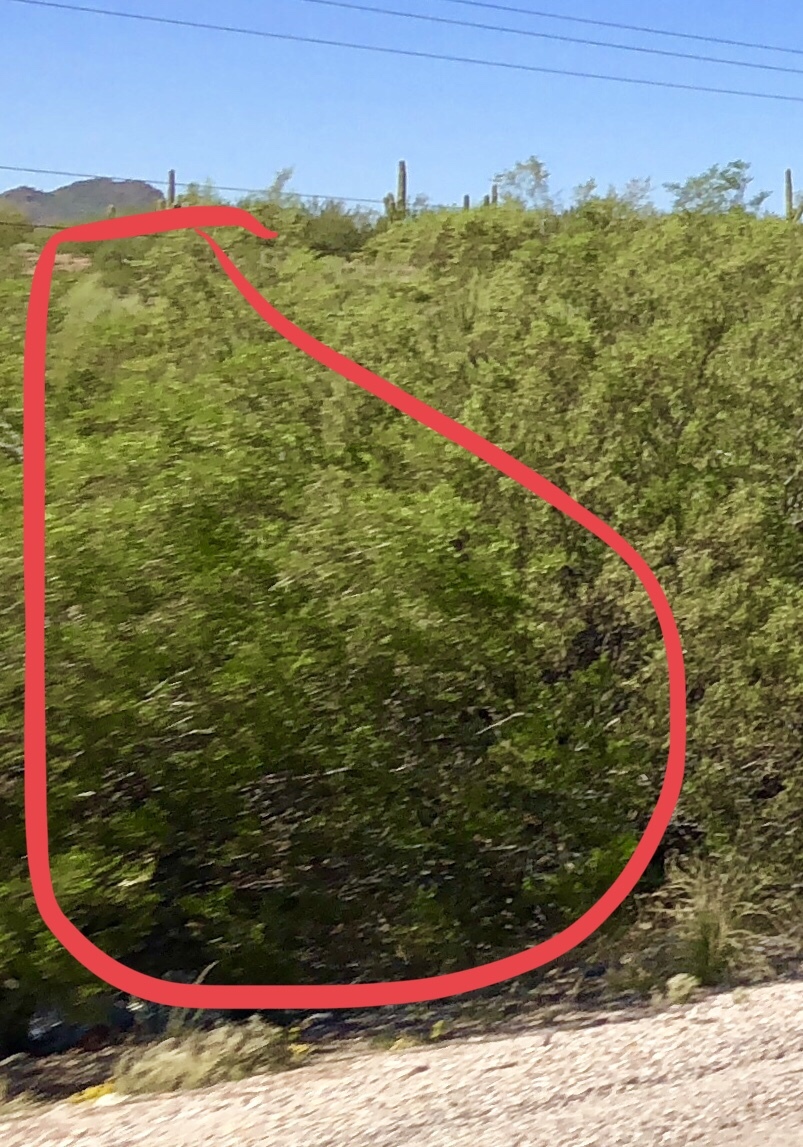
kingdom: Plantae
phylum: Tracheophyta
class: Magnoliopsida
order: Zygophyllales
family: Zygophyllaceae
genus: Larrea
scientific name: Larrea tridentata
